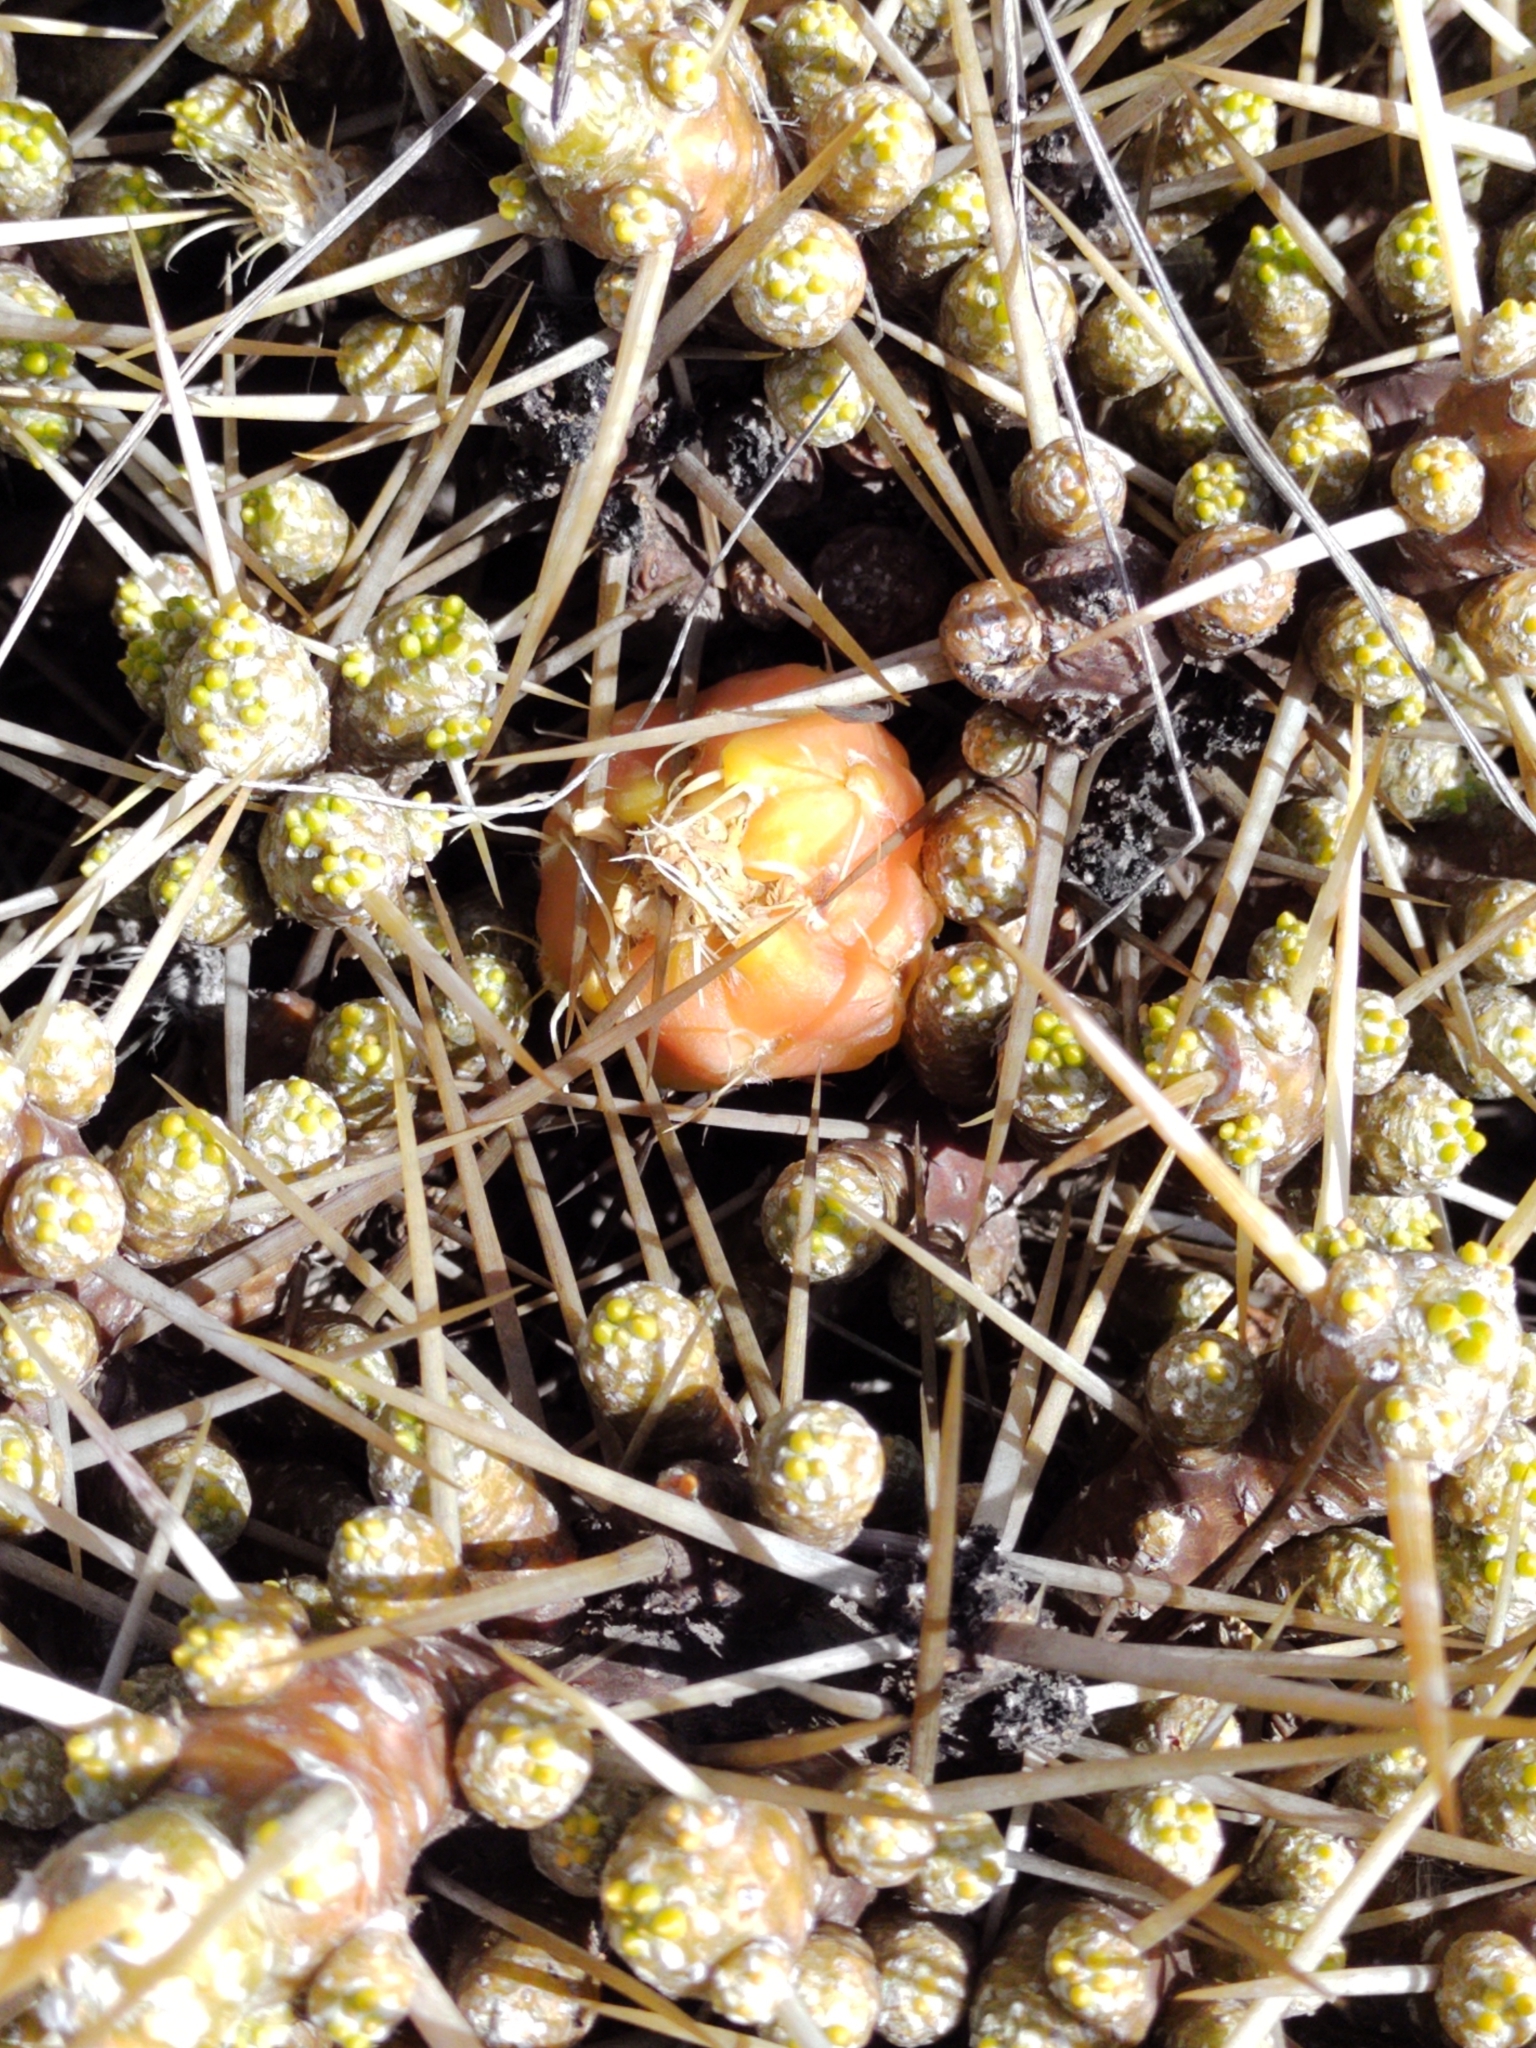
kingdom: Plantae
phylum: Tracheophyta
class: Magnoliopsida
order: Caryophyllales
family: Cactaceae
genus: Maihuenia
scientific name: Maihuenia patagonica
